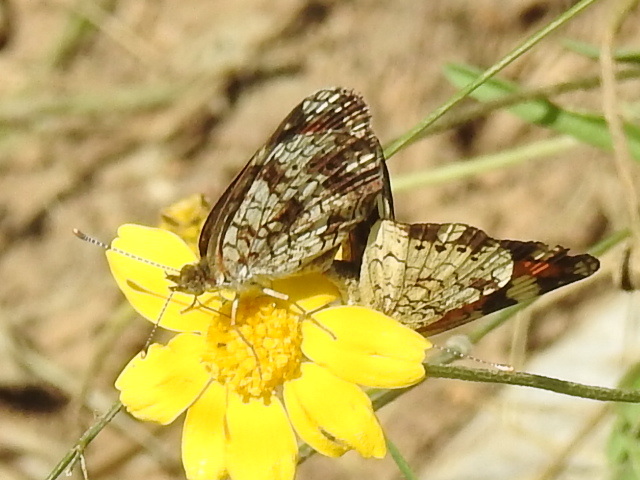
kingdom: Animalia
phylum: Arthropoda
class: Insecta
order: Lepidoptera
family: Nymphalidae
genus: Phyciodes
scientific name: Phyciodes phaon
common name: Phaon crescent
